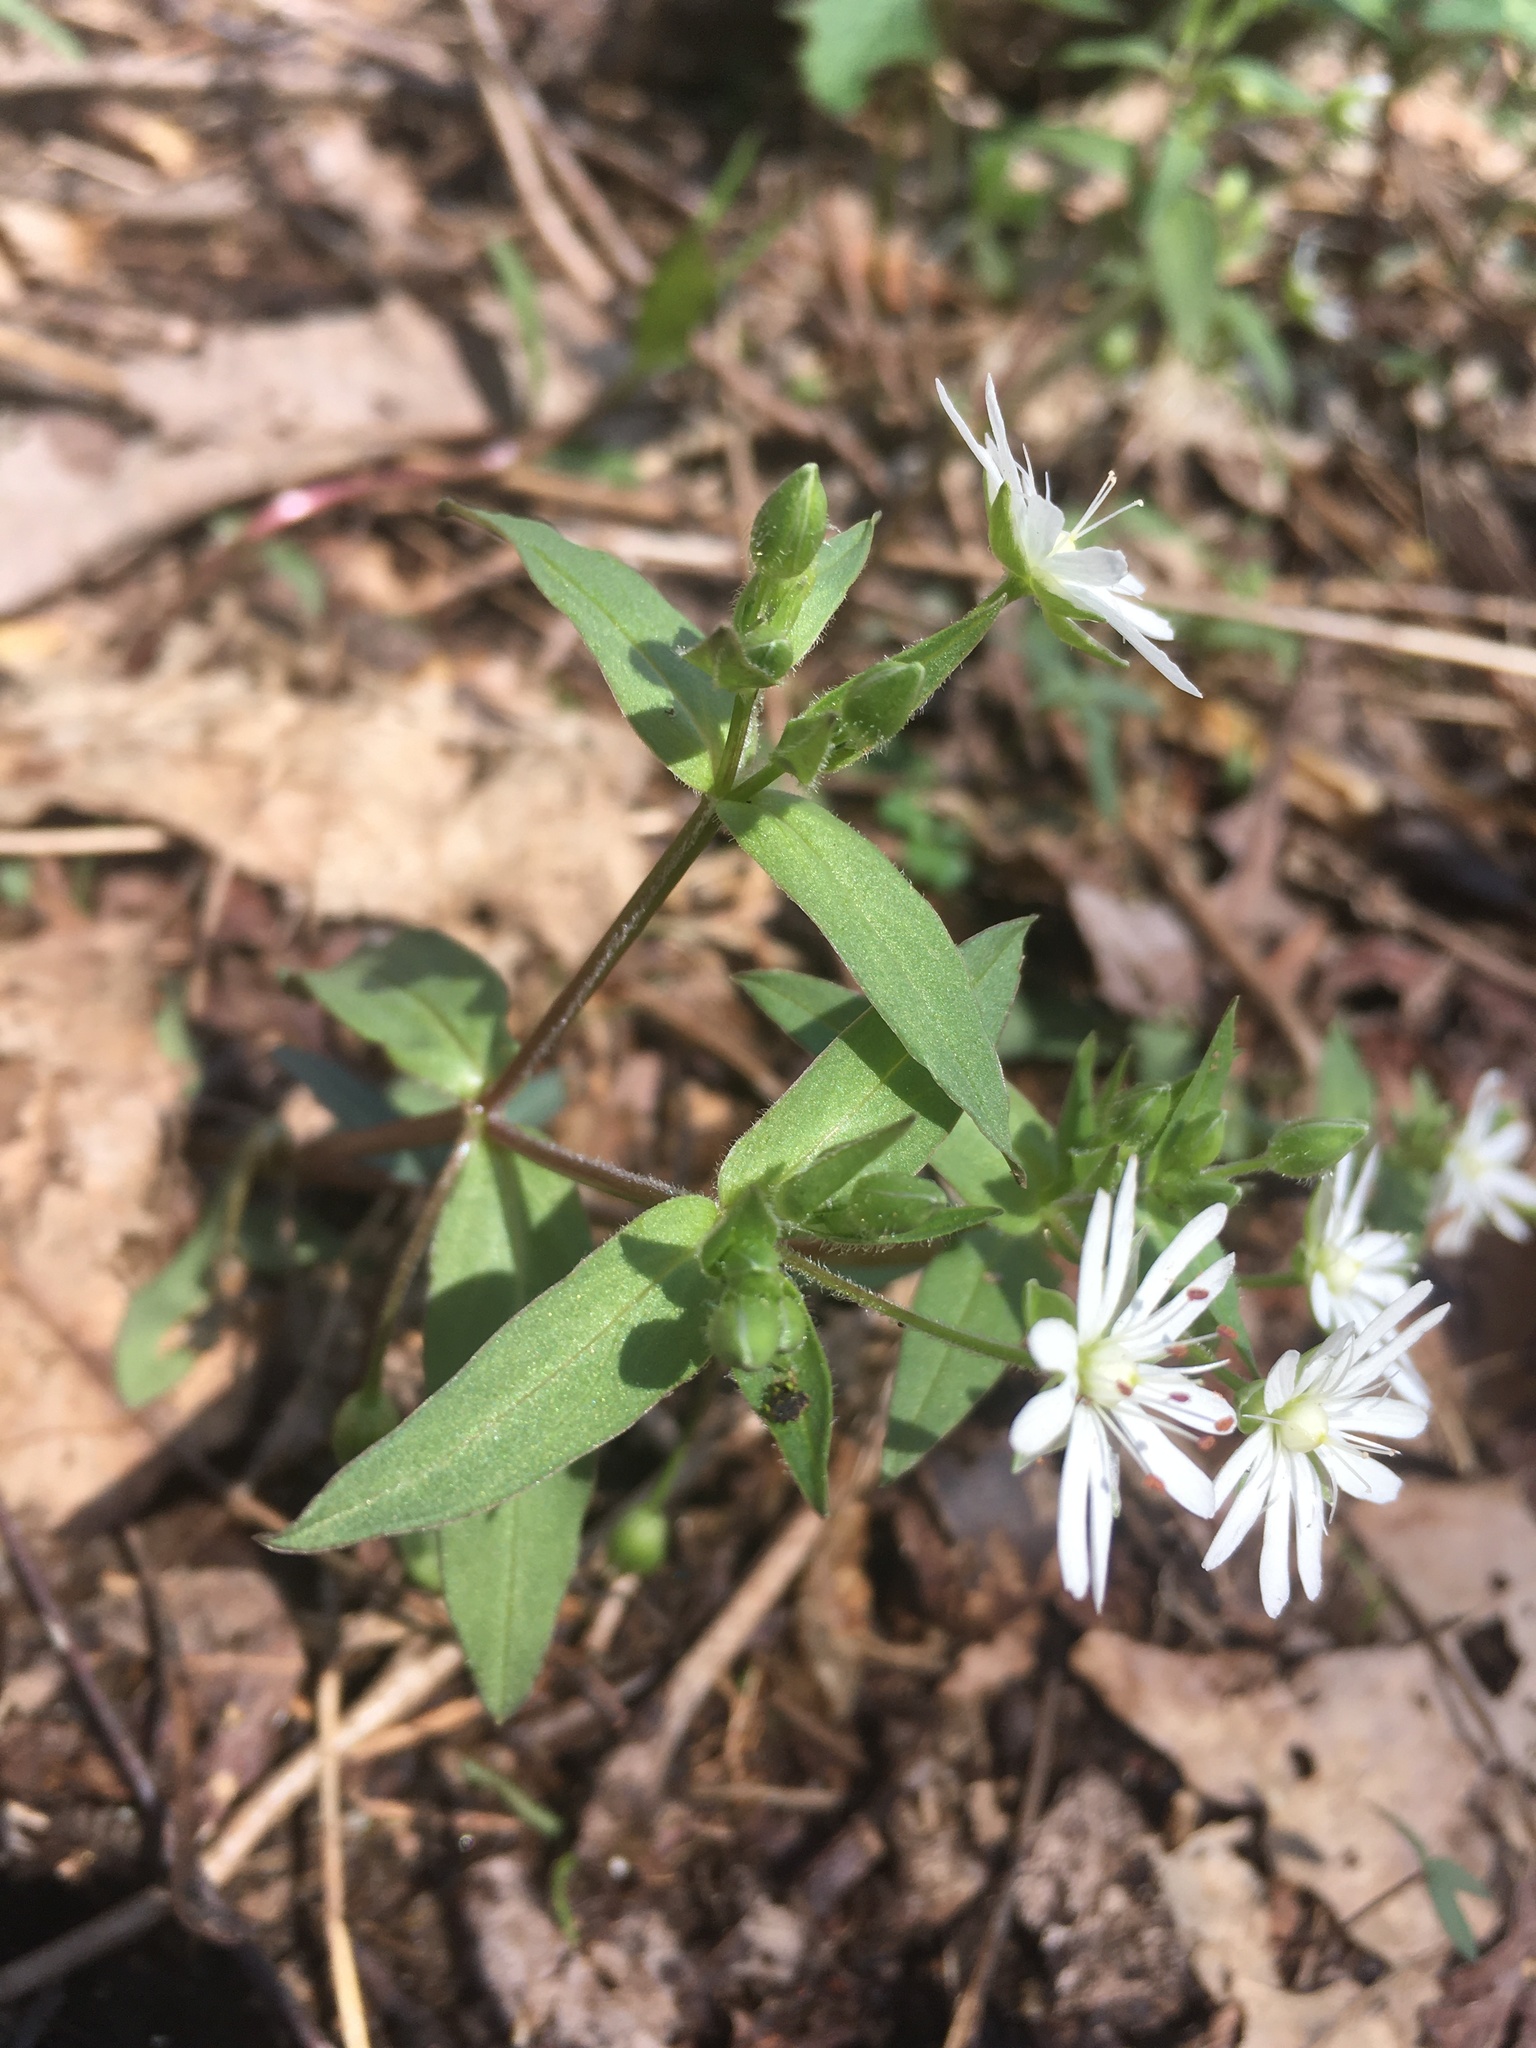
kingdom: Plantae
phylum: Tracheophyta
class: Magnoliopsida
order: Caryophyllales
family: Caryophyllaceae
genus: Stellaria
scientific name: Stellaria pubera
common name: Star chickweed
